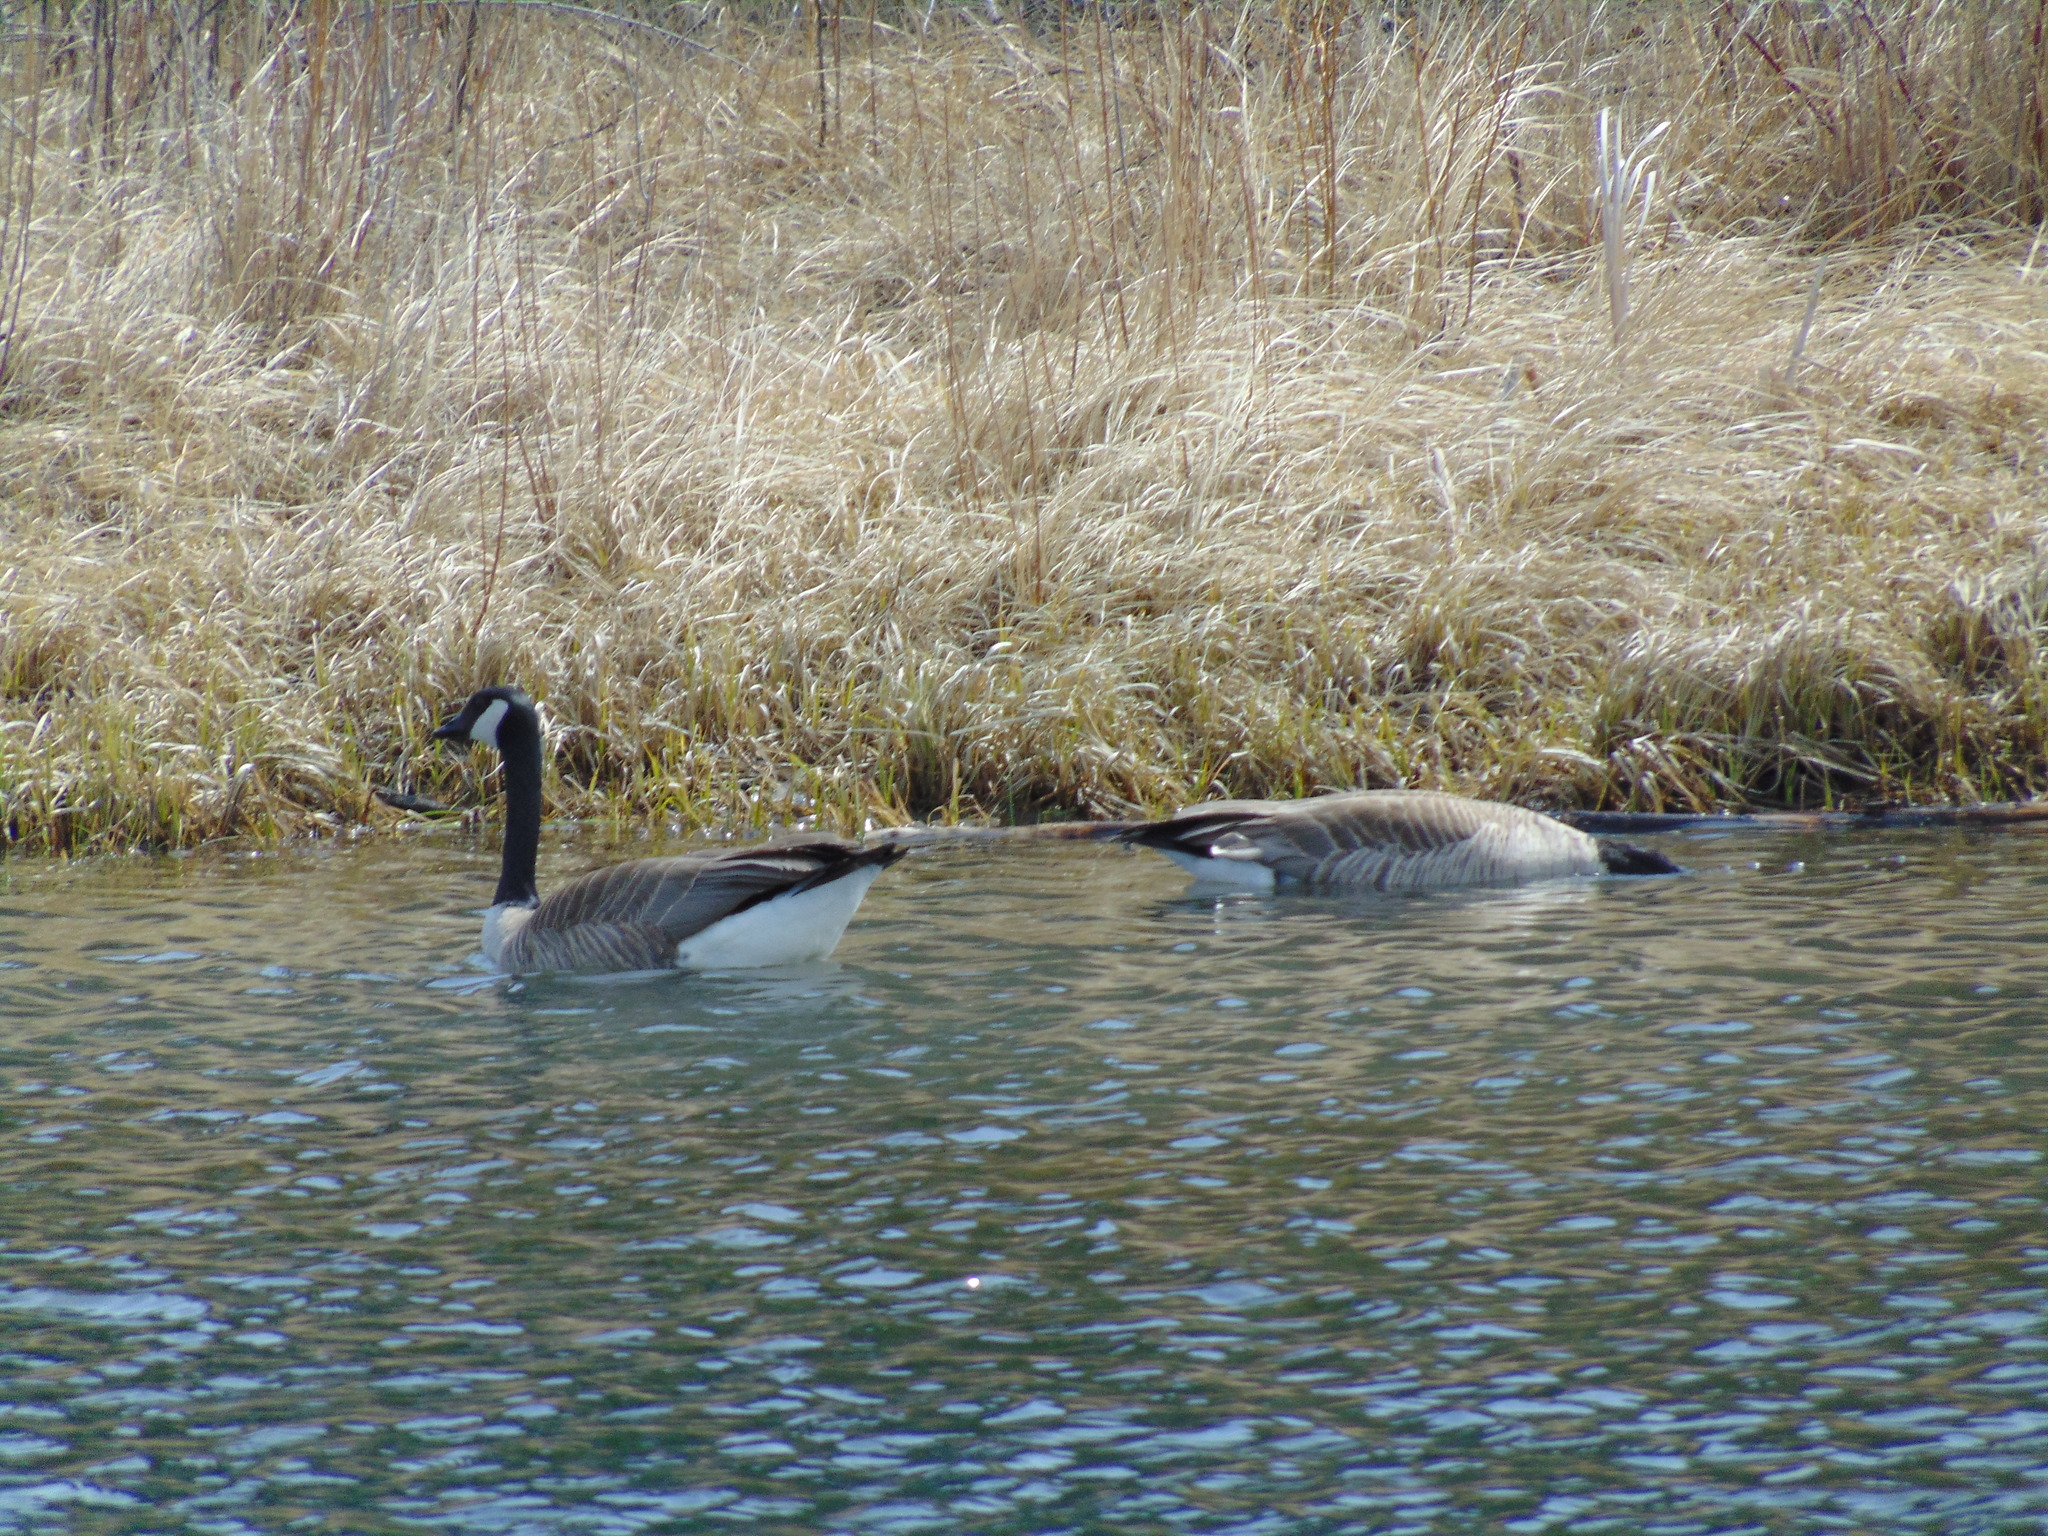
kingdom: Animalia
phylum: Chordata
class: Aves
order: Anseriformes
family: Anatidae
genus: Branta
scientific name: Branta canadensis
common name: Canada goose
